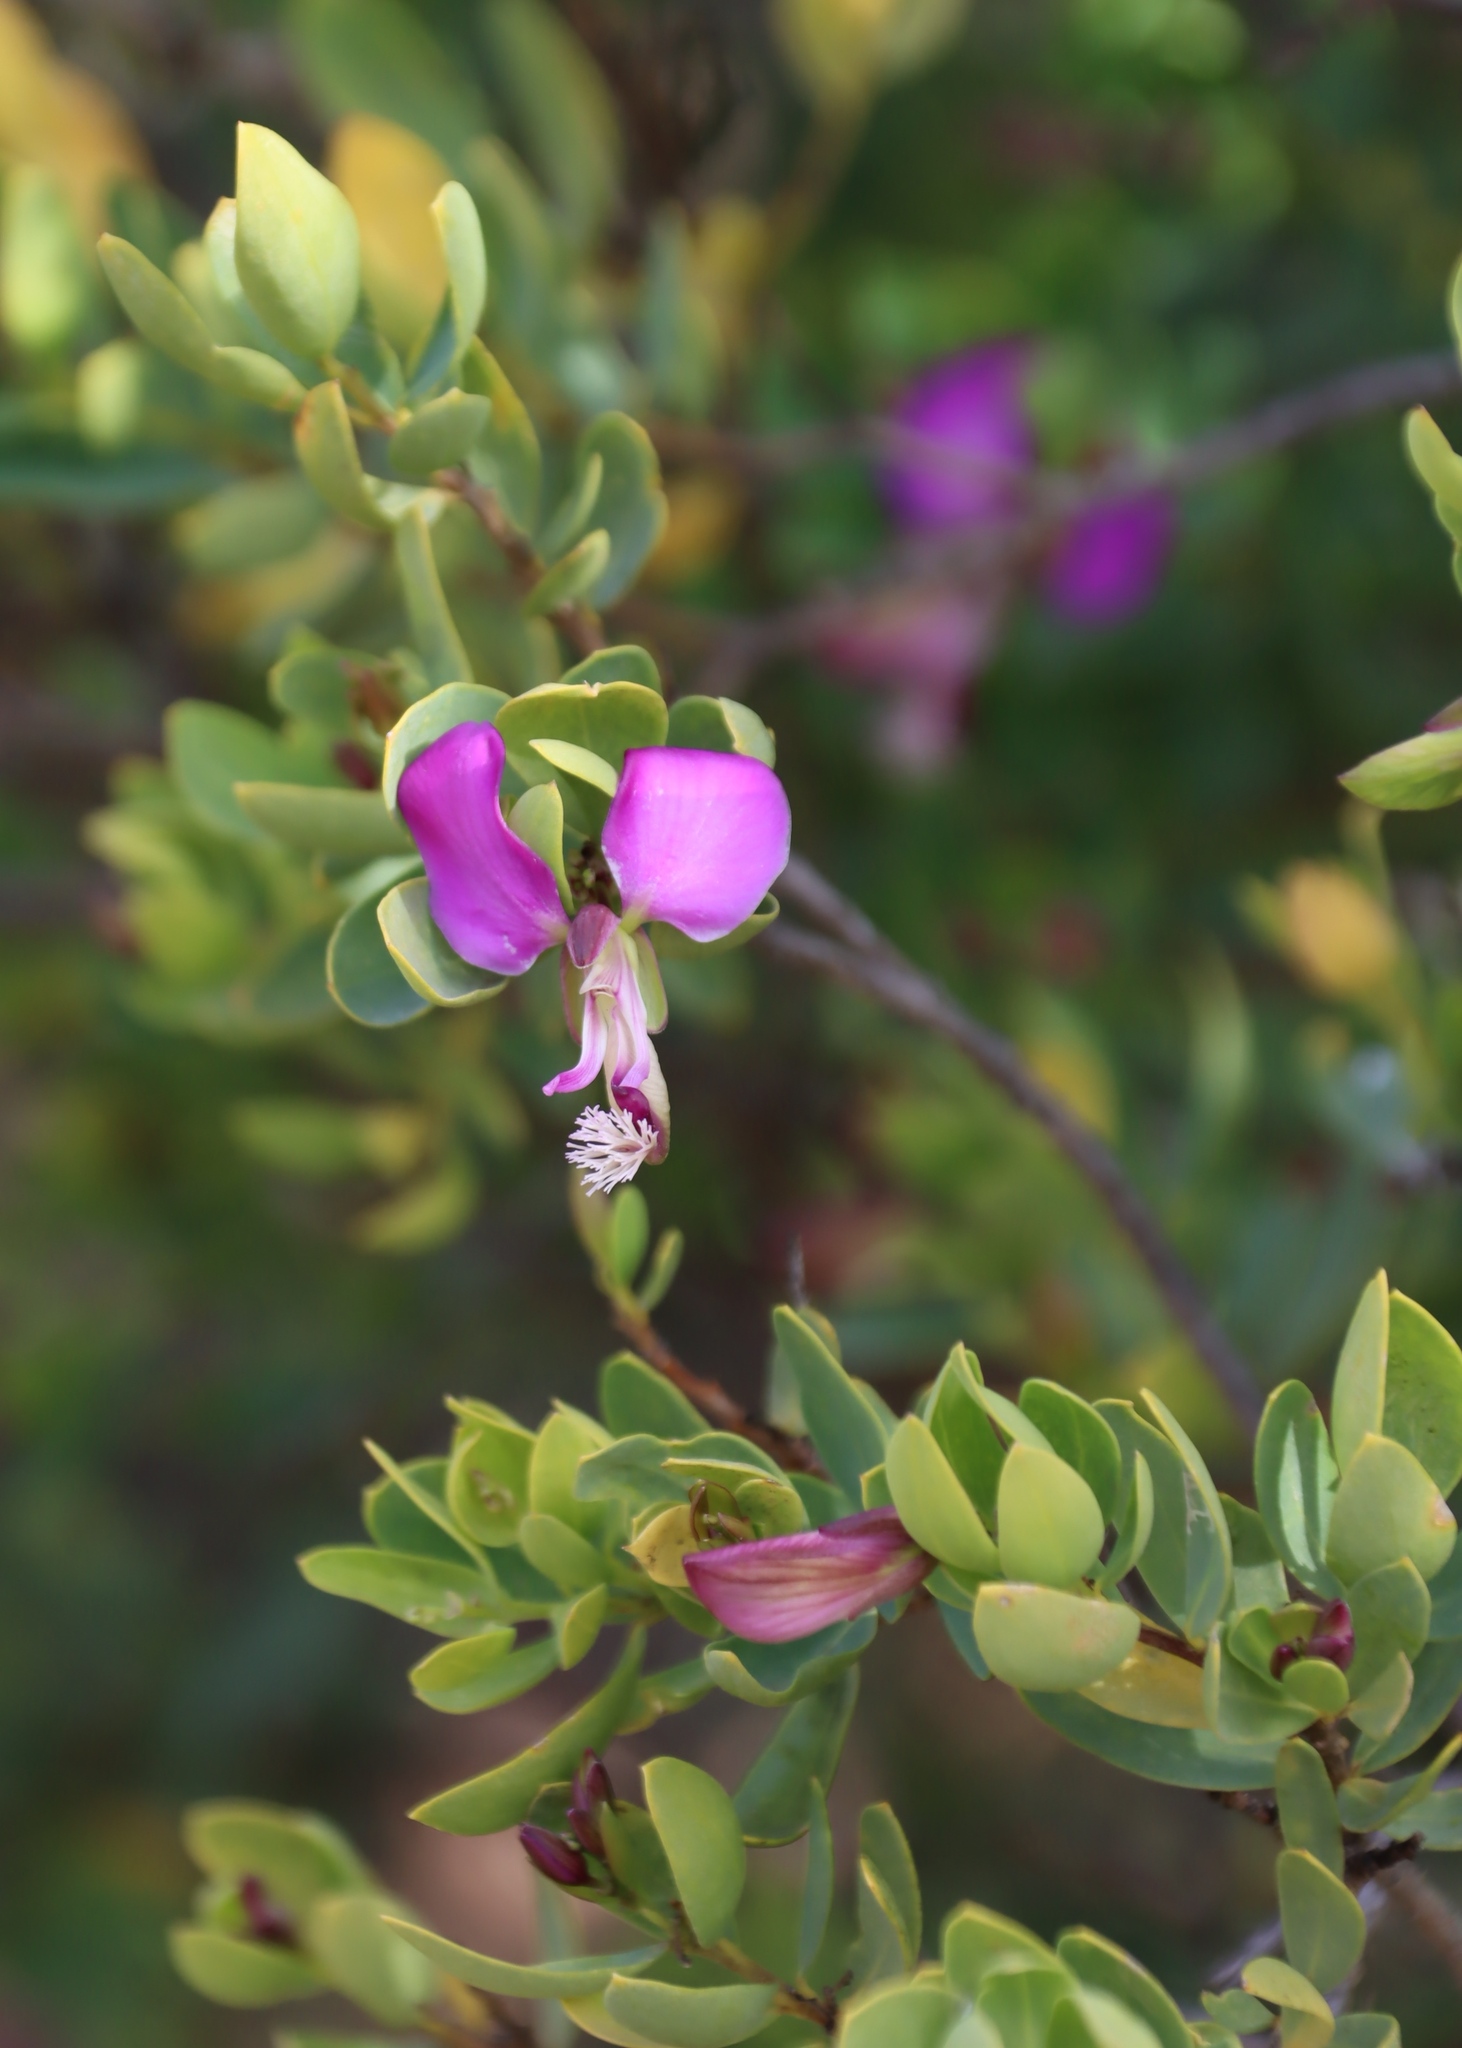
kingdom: Plantae
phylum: Tracheophyta
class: Magnoliopsida
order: Fabales
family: Polygalaceae
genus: Polygala
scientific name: Polygala myrtifolia
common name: Myrtle-leaf milkwort
